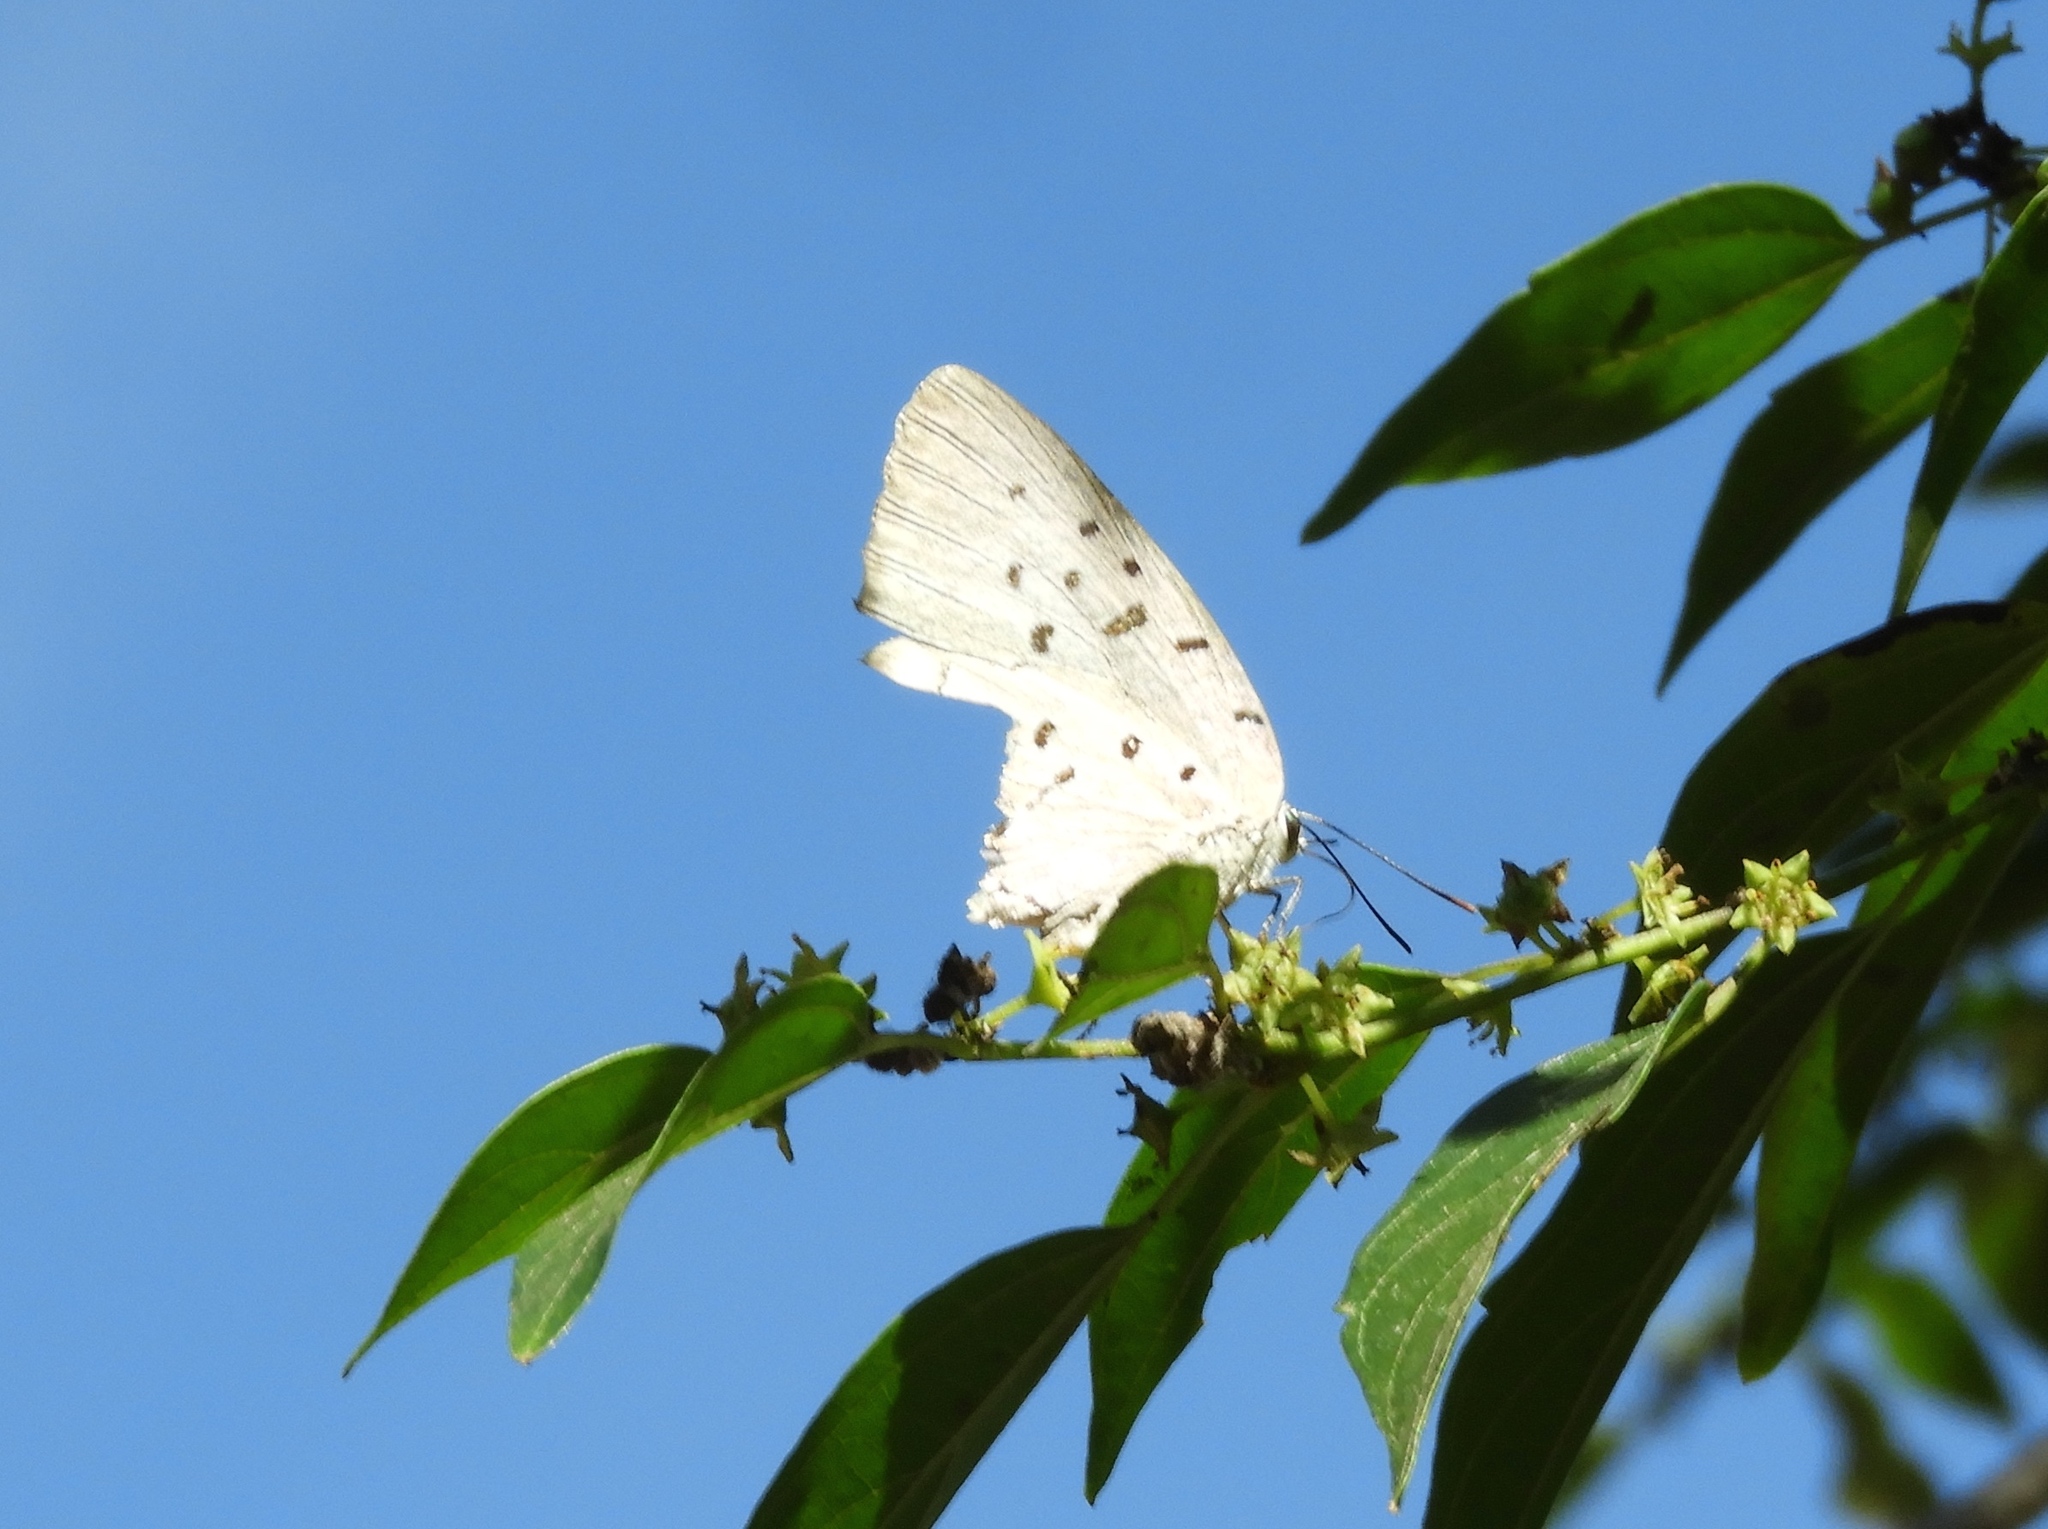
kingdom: Animalia
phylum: Arthropoda
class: Insecta
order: Lepidoptera
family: Lycaenidae
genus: Pseudolycaena
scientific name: Pseudolycaena damo
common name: Sky-blue hairstreak
